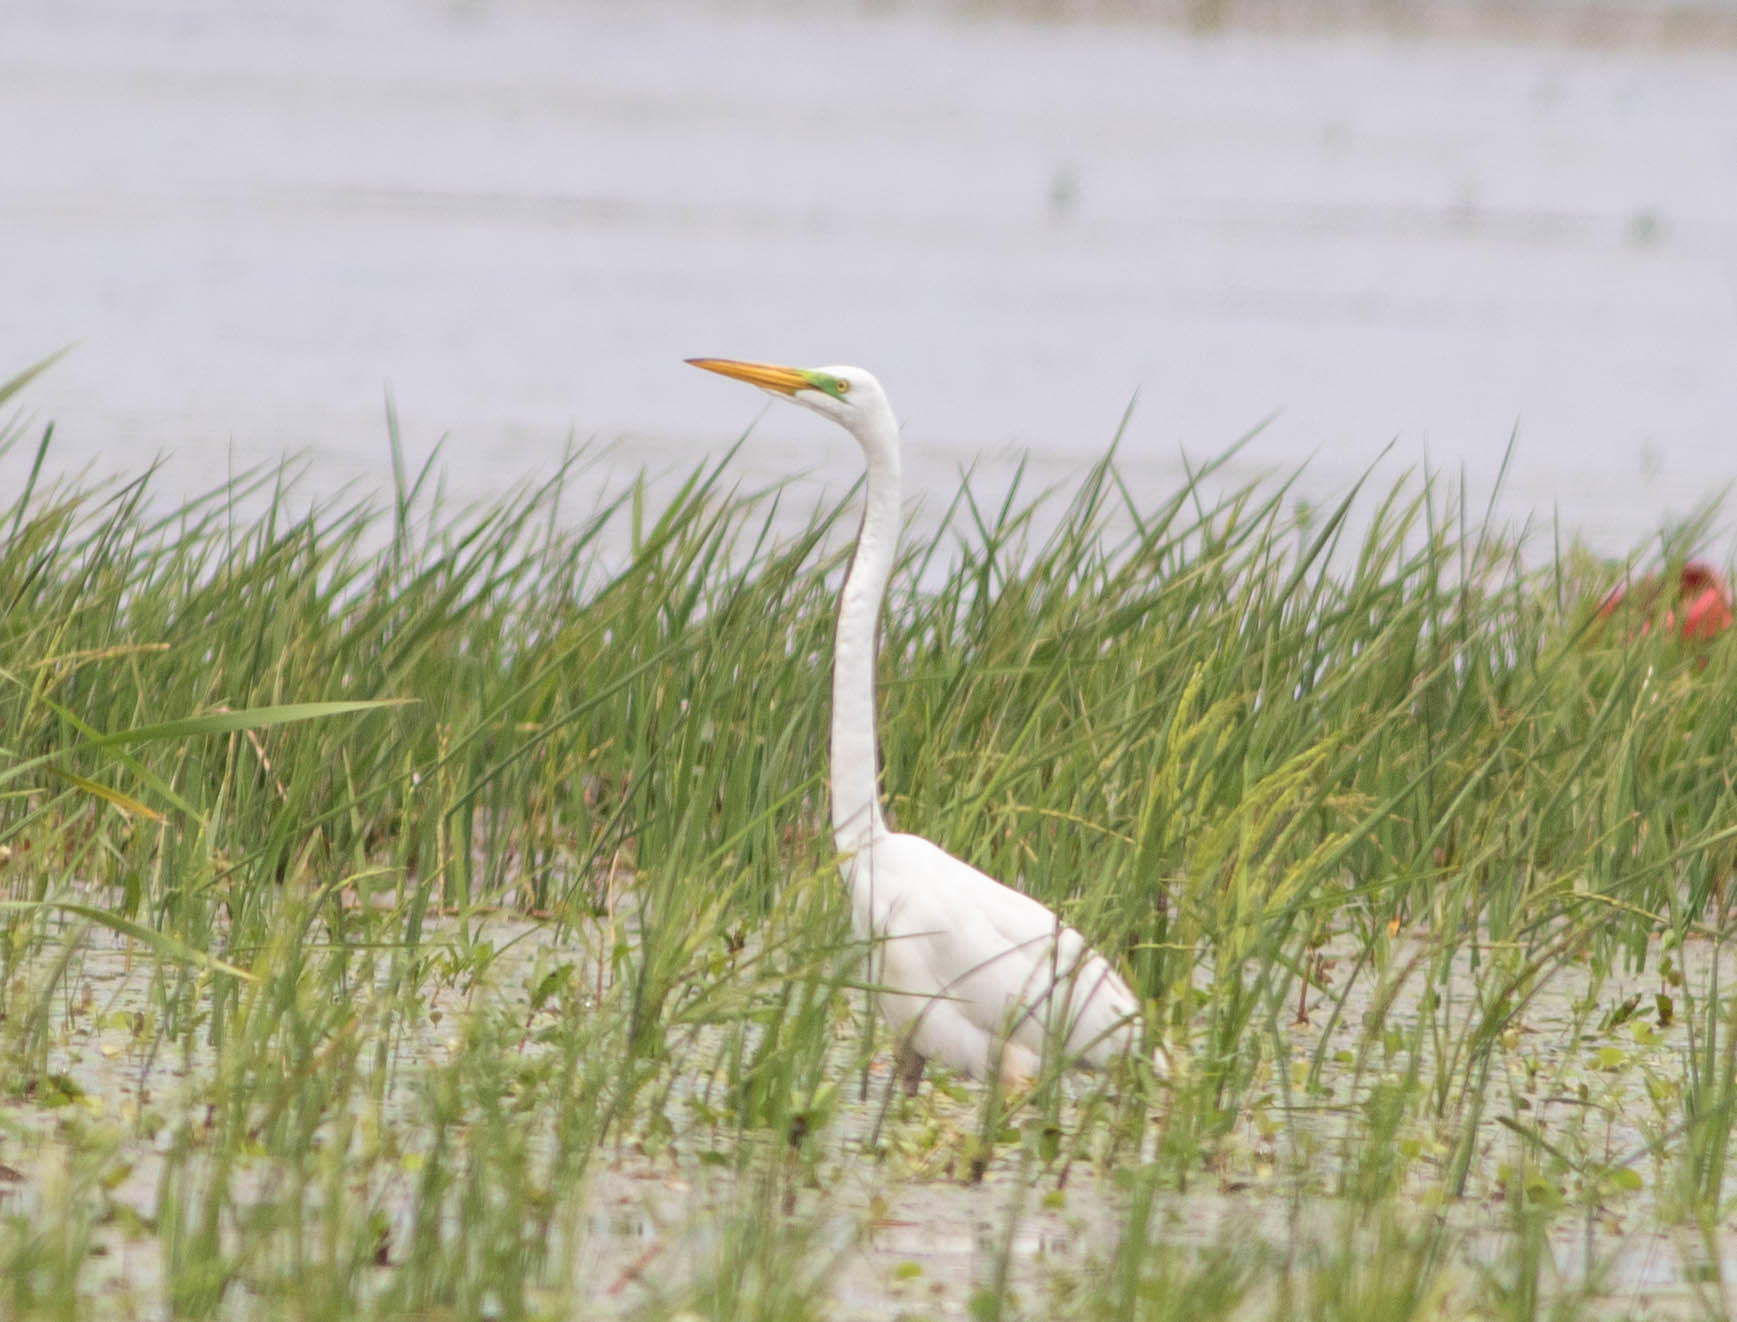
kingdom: Animalia
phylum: Chordata
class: Aves
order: Pelecaniformes
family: Ardeidae
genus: Ardea
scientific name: Ardea alba
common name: Great egret
